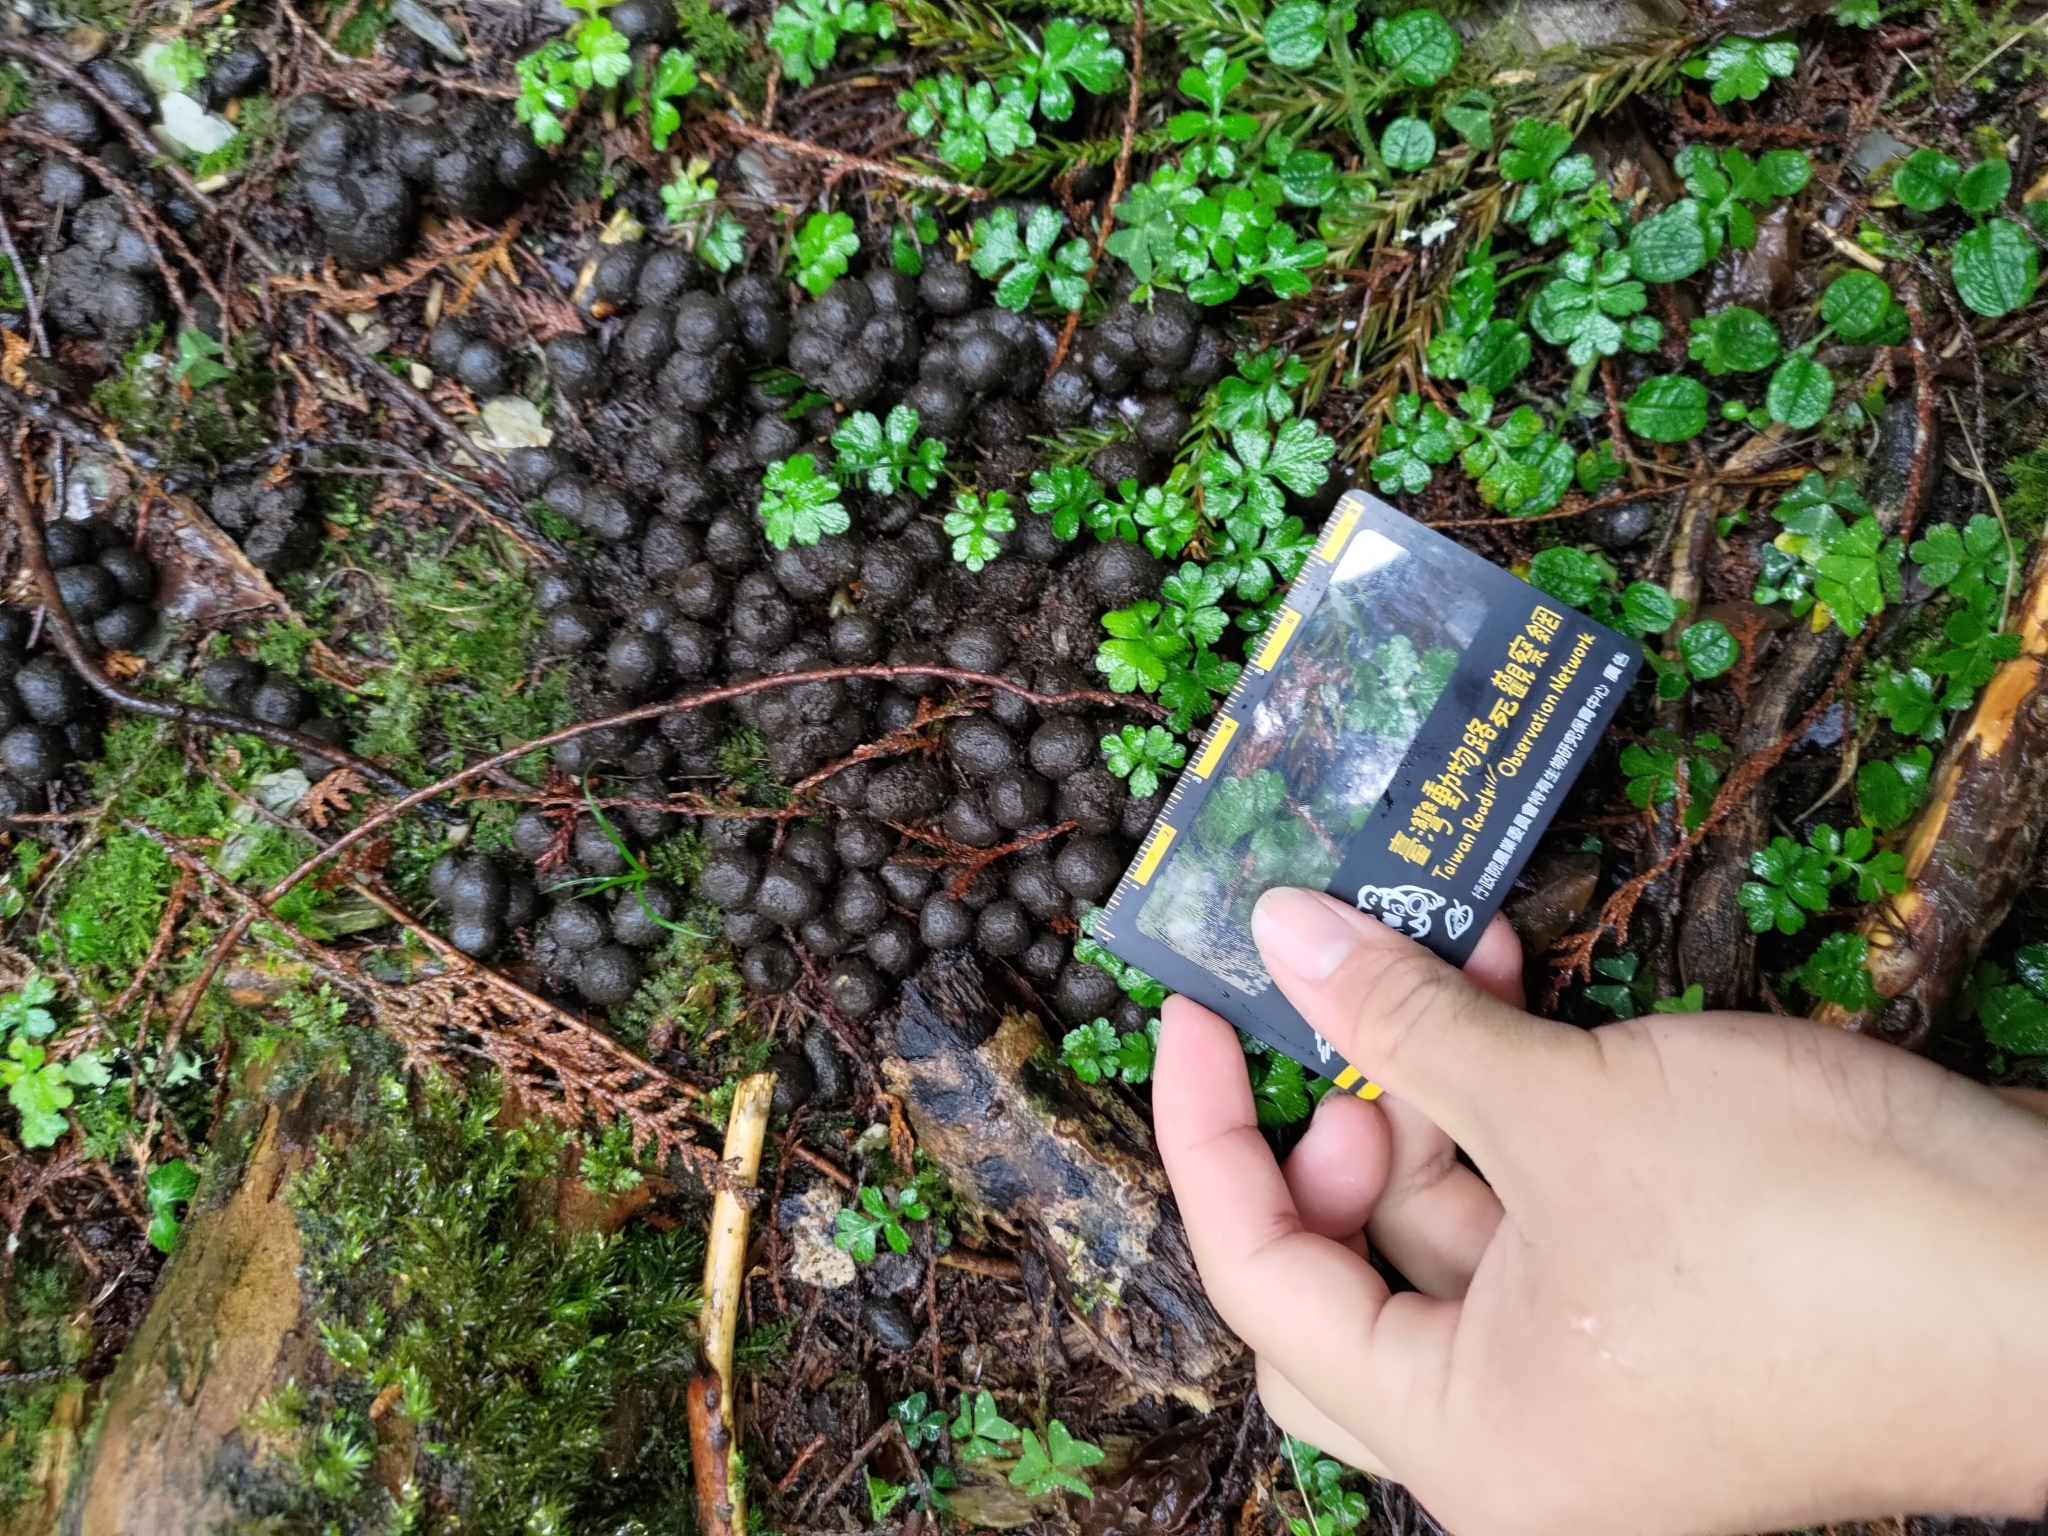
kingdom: Animalia
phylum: Chordata
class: Mammalia
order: Artiodactyla
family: Cervidae
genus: Rusa
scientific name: Rusa unicolor
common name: Sambar
